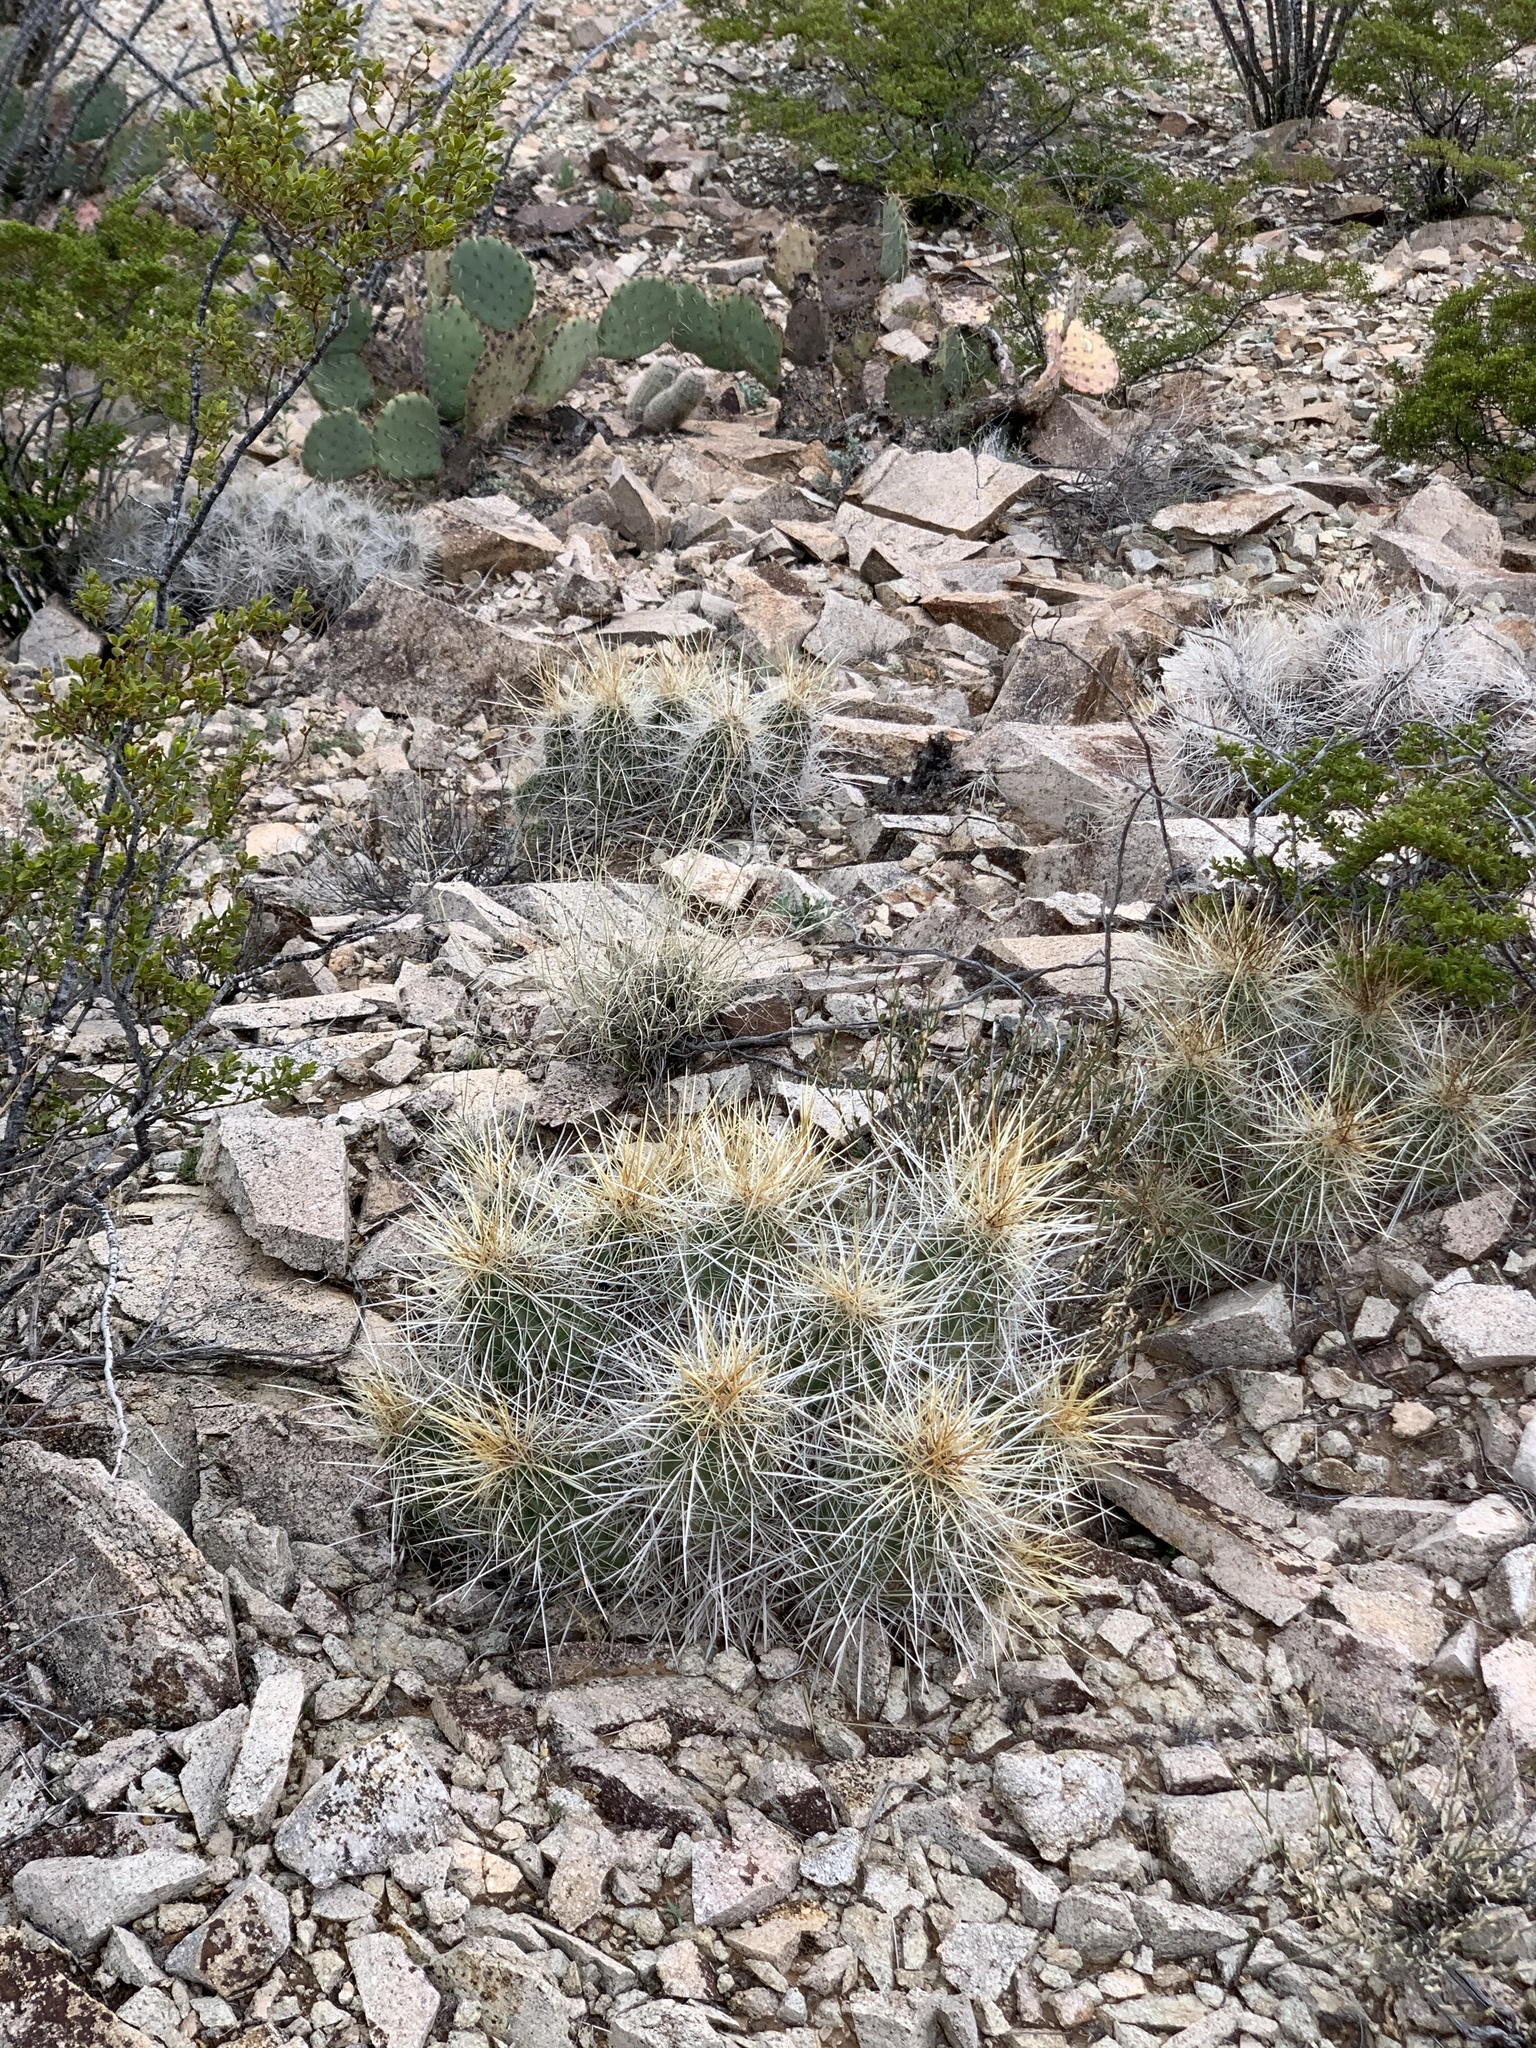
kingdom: Plantae
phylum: Tracheophyta
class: Magnoliopsida
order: Caryophyllales
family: Cactaceae
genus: Echinocereus
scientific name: Echinocereus stramineus
